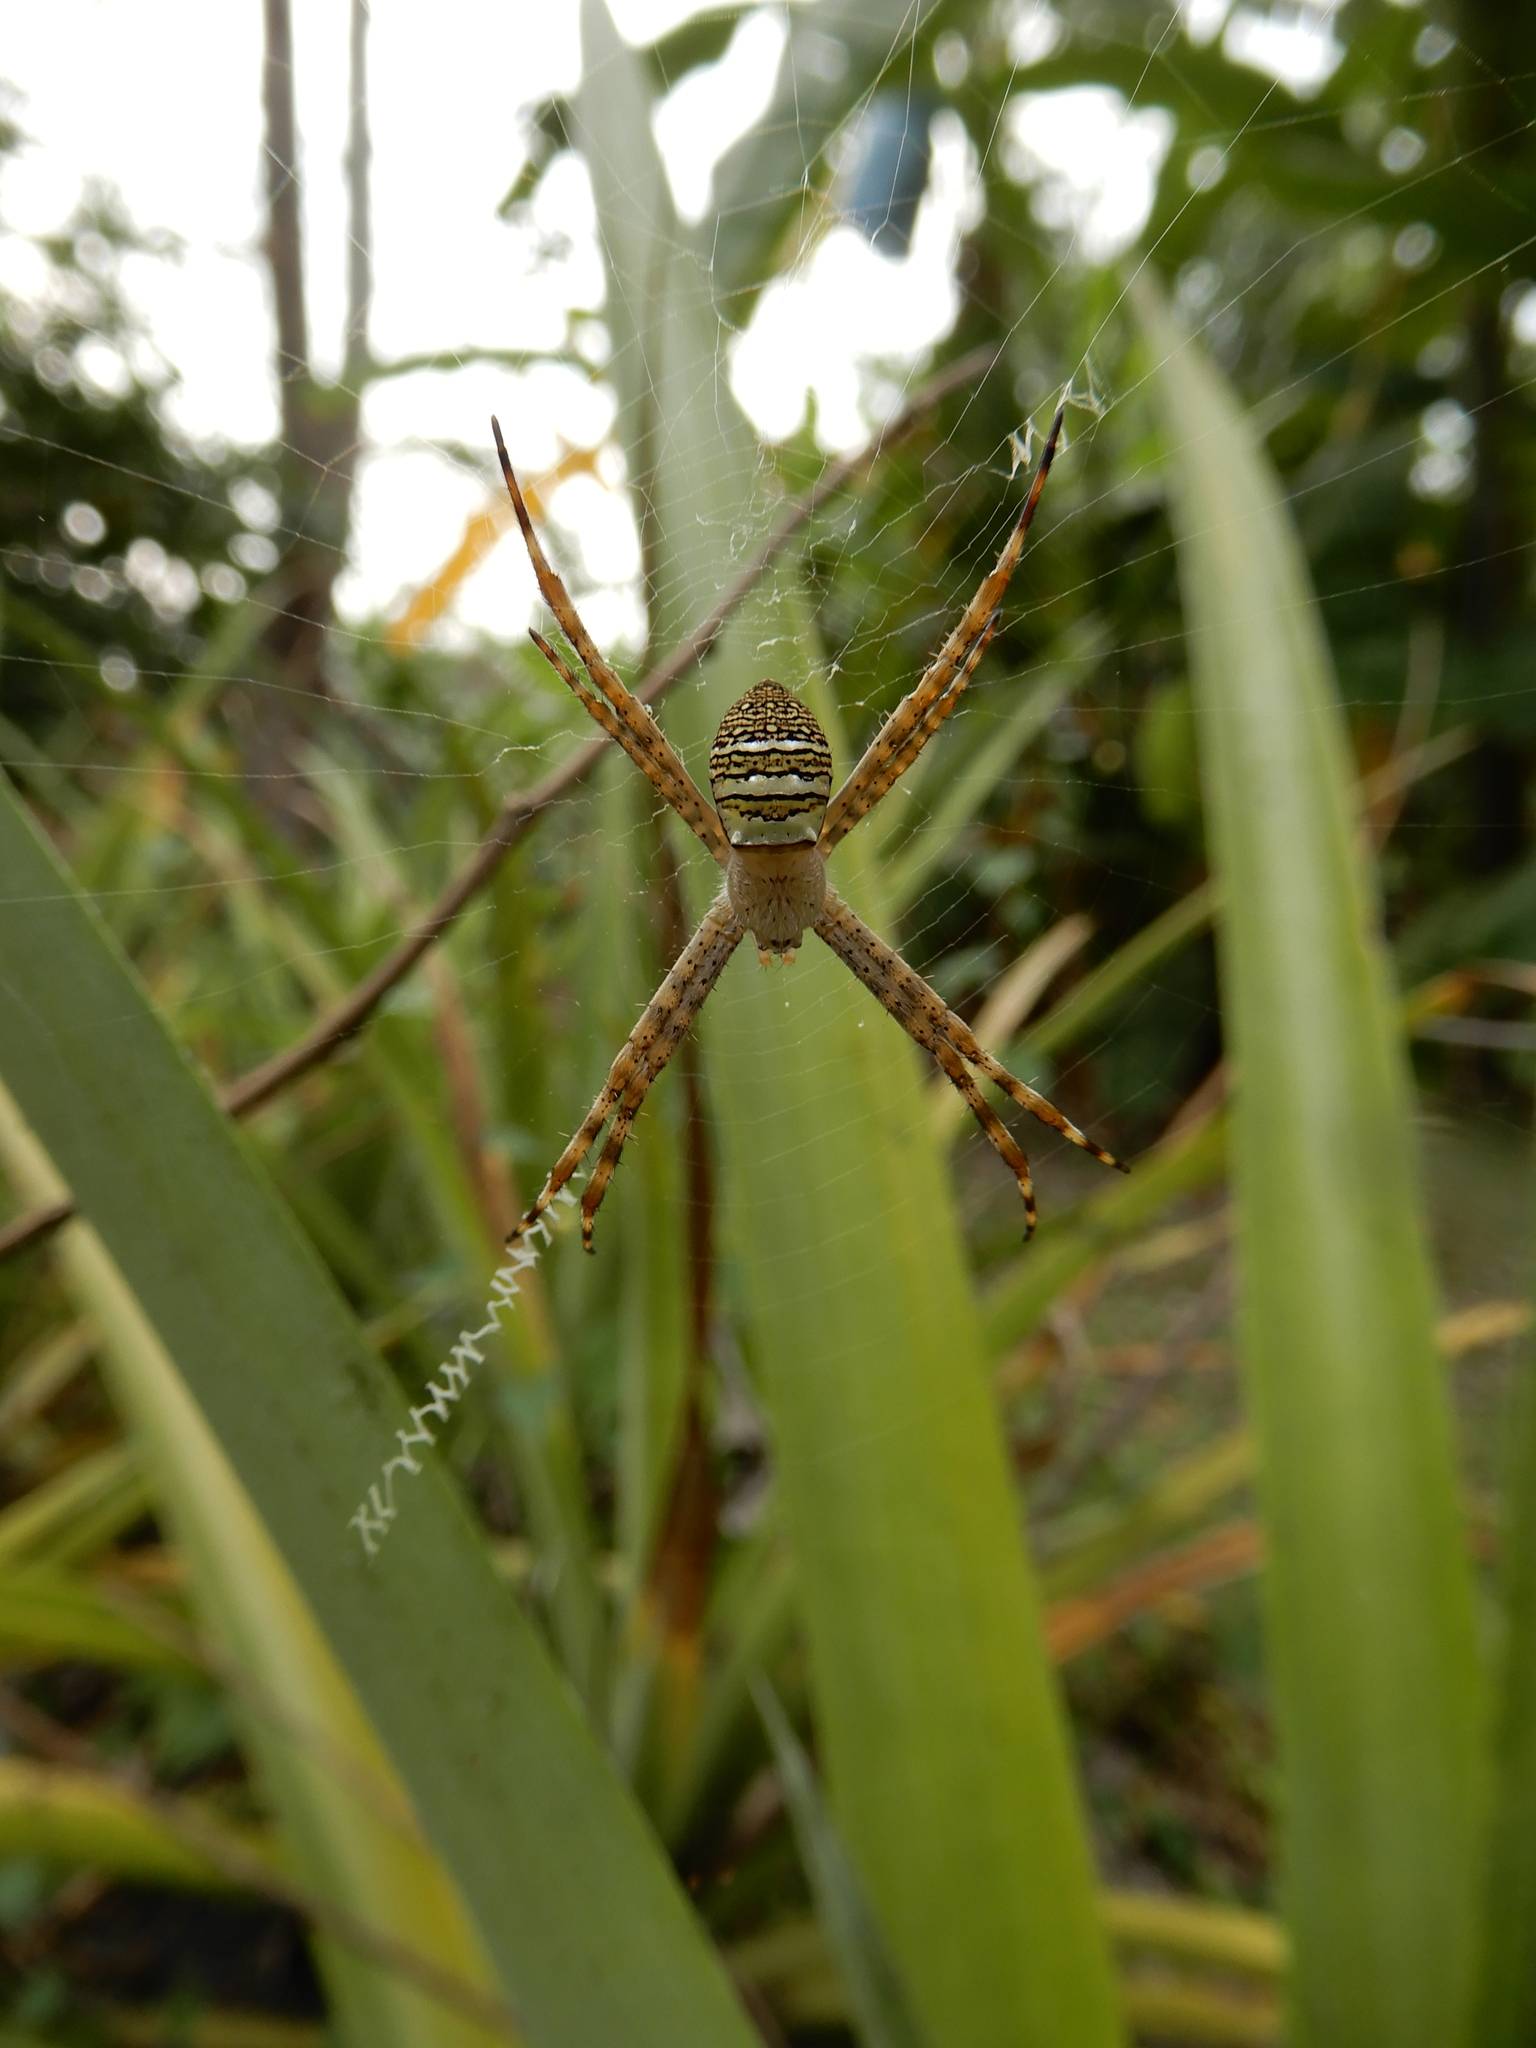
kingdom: Animalia
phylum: Arthropoda
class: Arachnida
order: Araneae
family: Araneidae
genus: Argiope
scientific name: Argiope aemula
